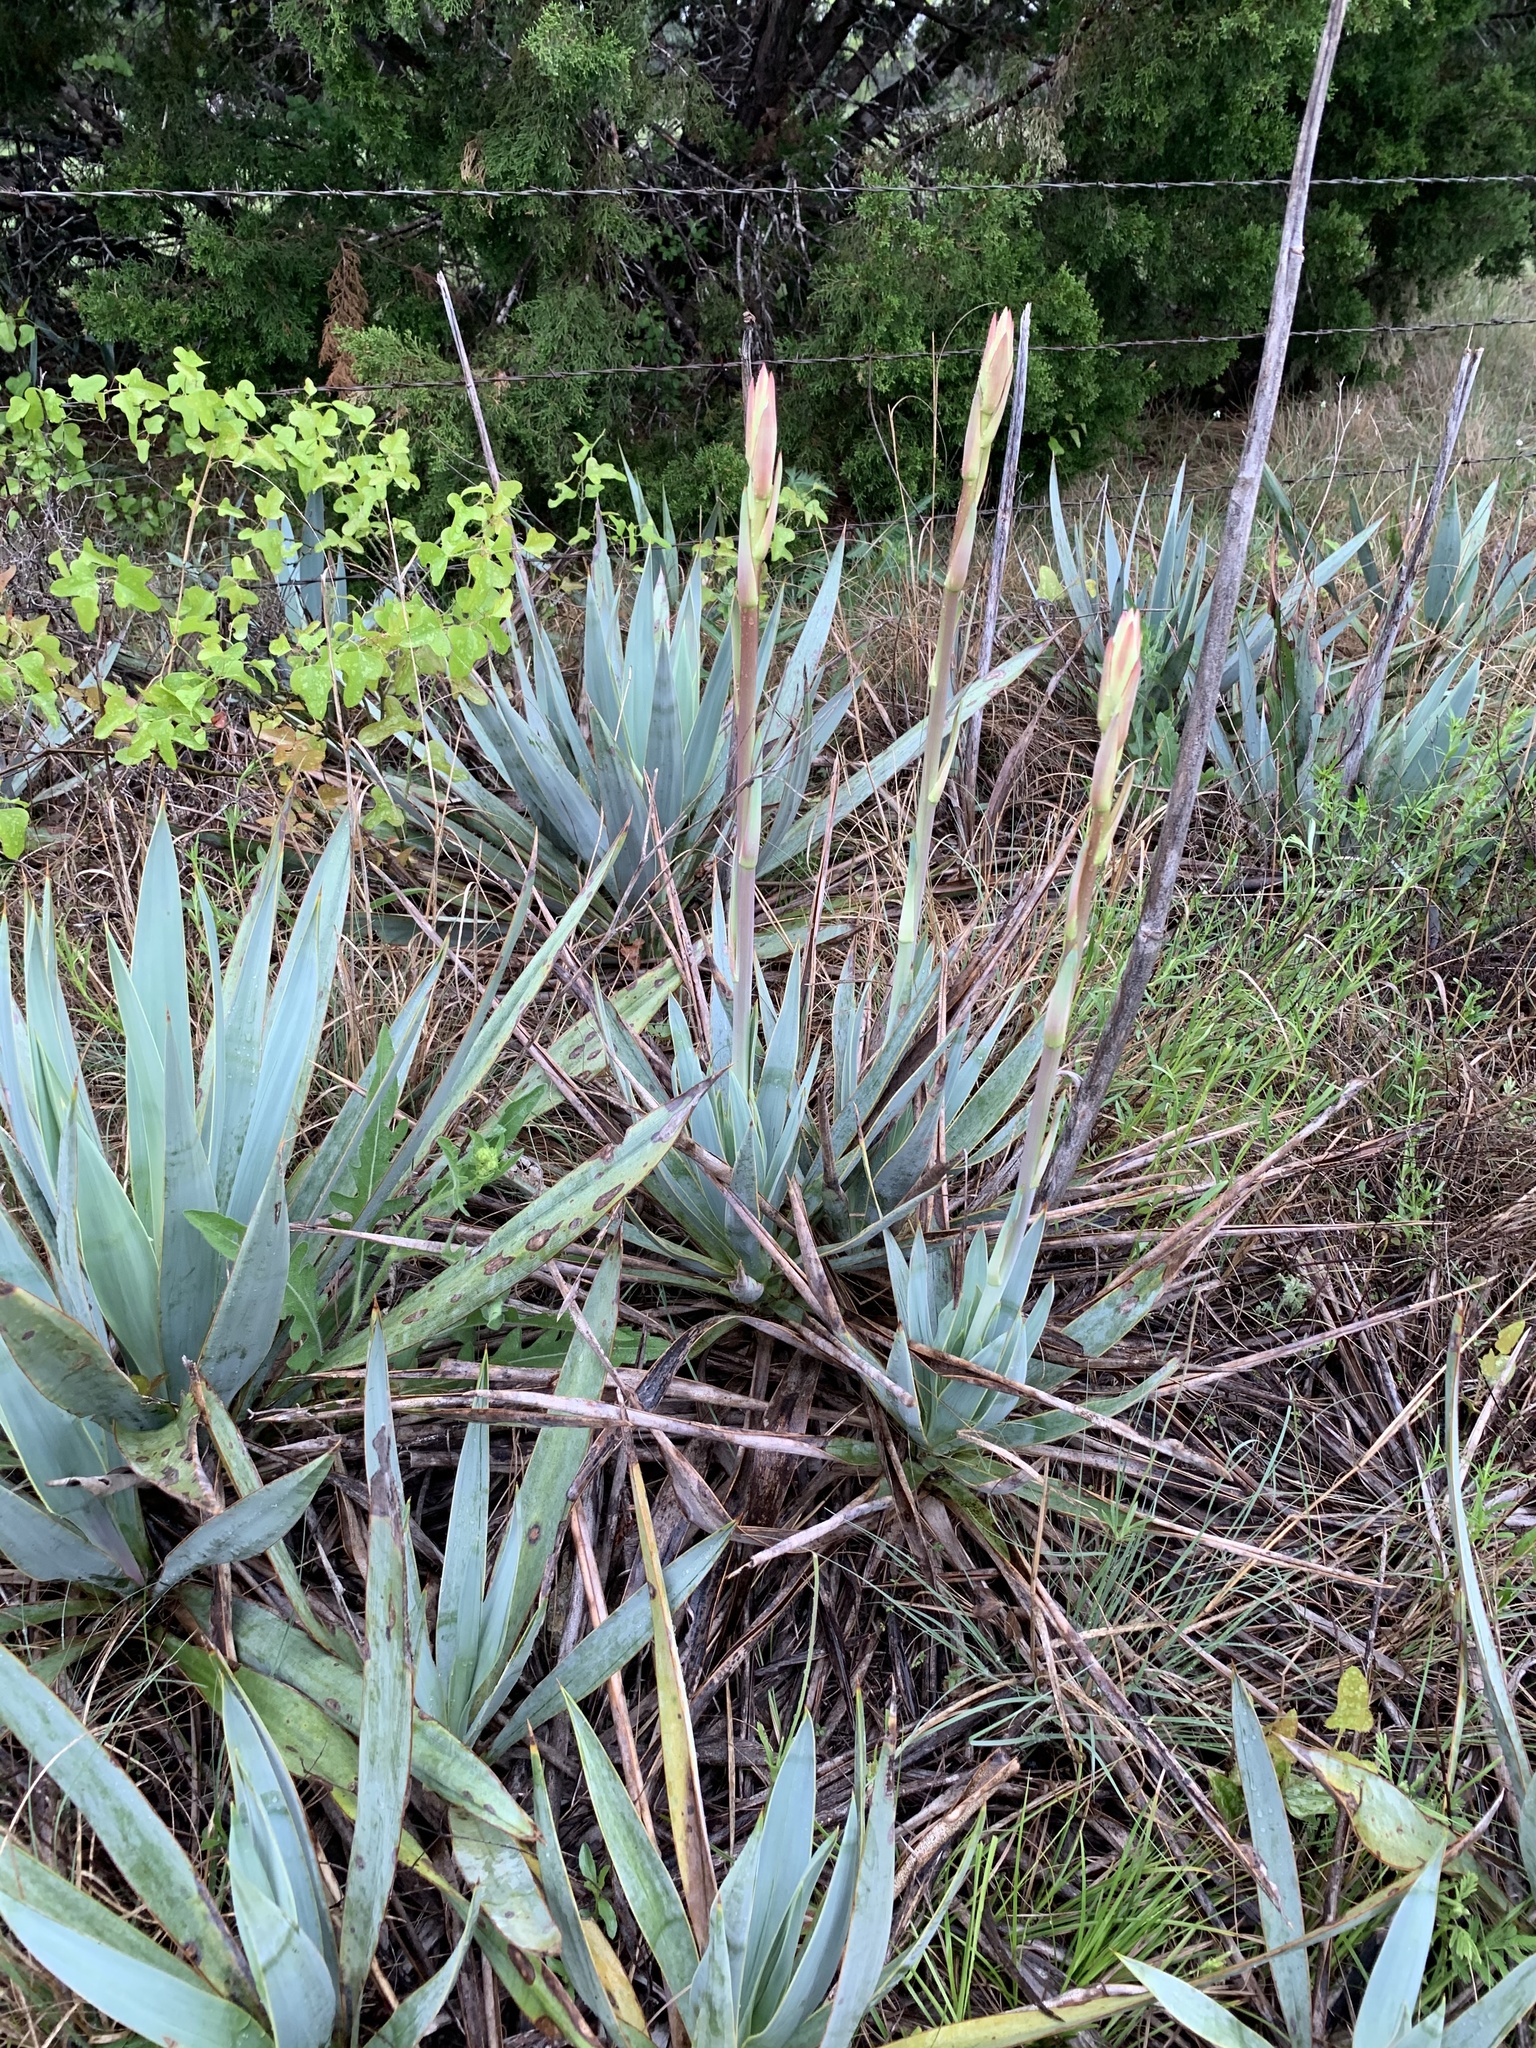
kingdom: Plantae
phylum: Tracheophyta
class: Liliopsida
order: Asparagales
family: Asparagaceae
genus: Yucca
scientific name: Yucca pallida
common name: Pale leaf yucca
